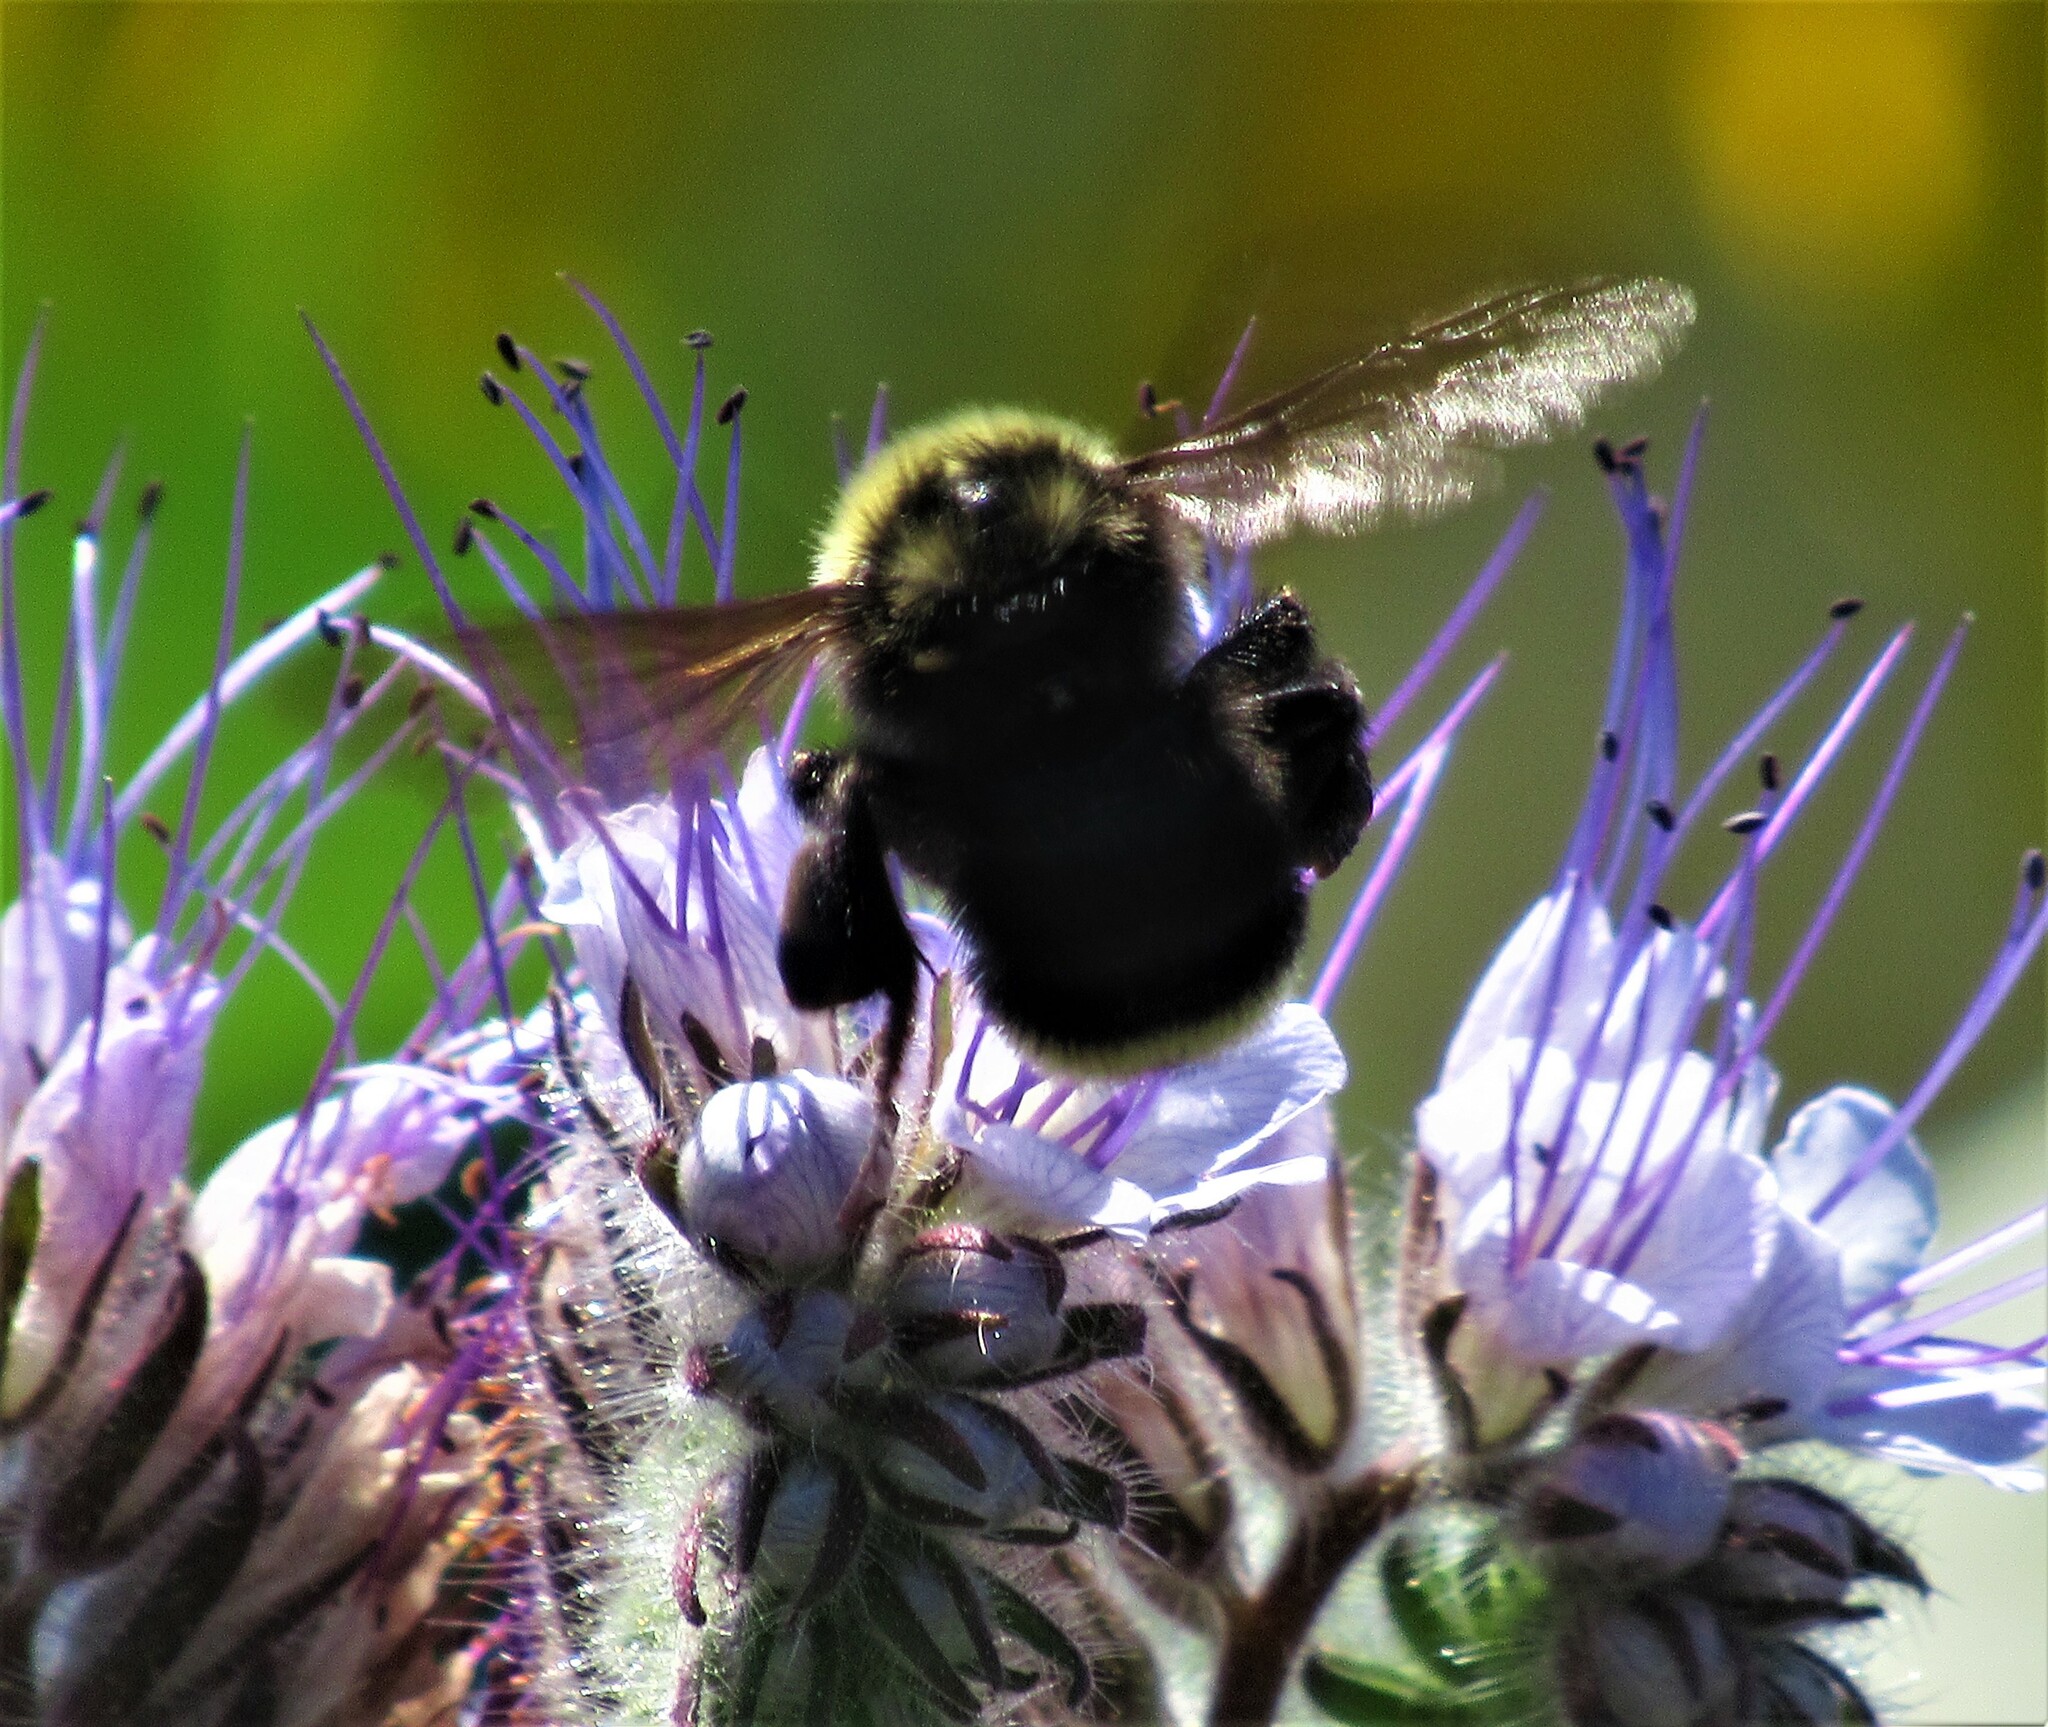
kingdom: Animalia
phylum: Arthropoda
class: Insecta
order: Hymenoptera
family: Apidae
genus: Bombus
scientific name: Bombus californicus
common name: California bumble bee
